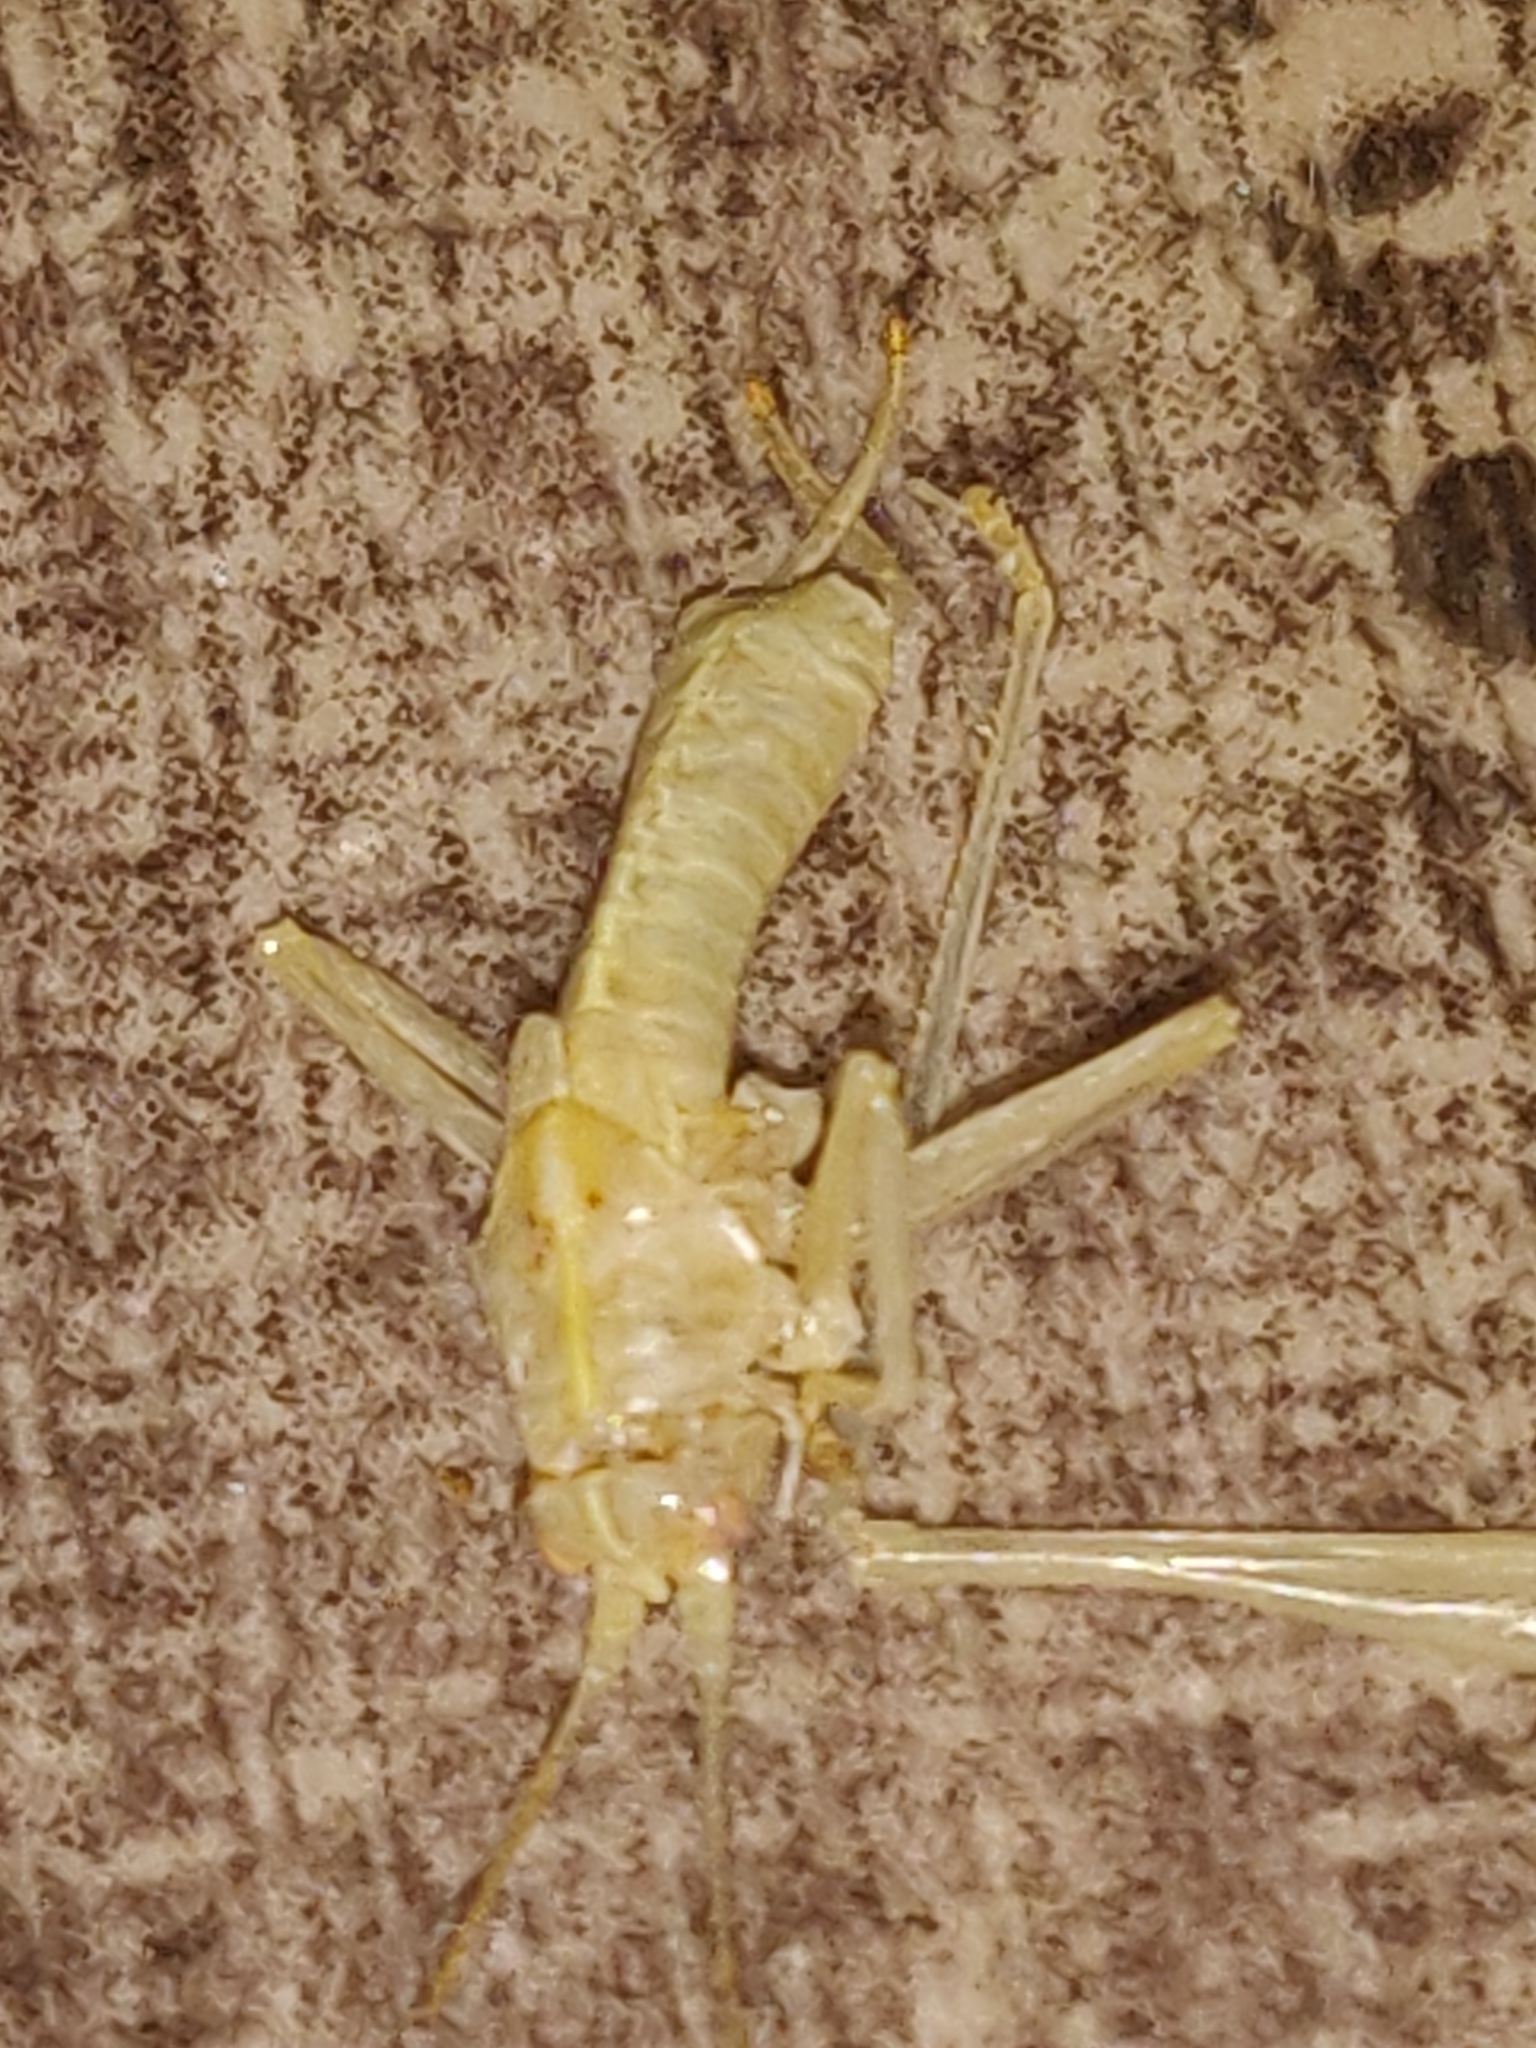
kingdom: Animalia
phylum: Arthropoda
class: Insecta
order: Orthoptera
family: Tettigoniidae
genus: Meconema
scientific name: Meconema meridionale
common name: Southern oak bush-cricket
